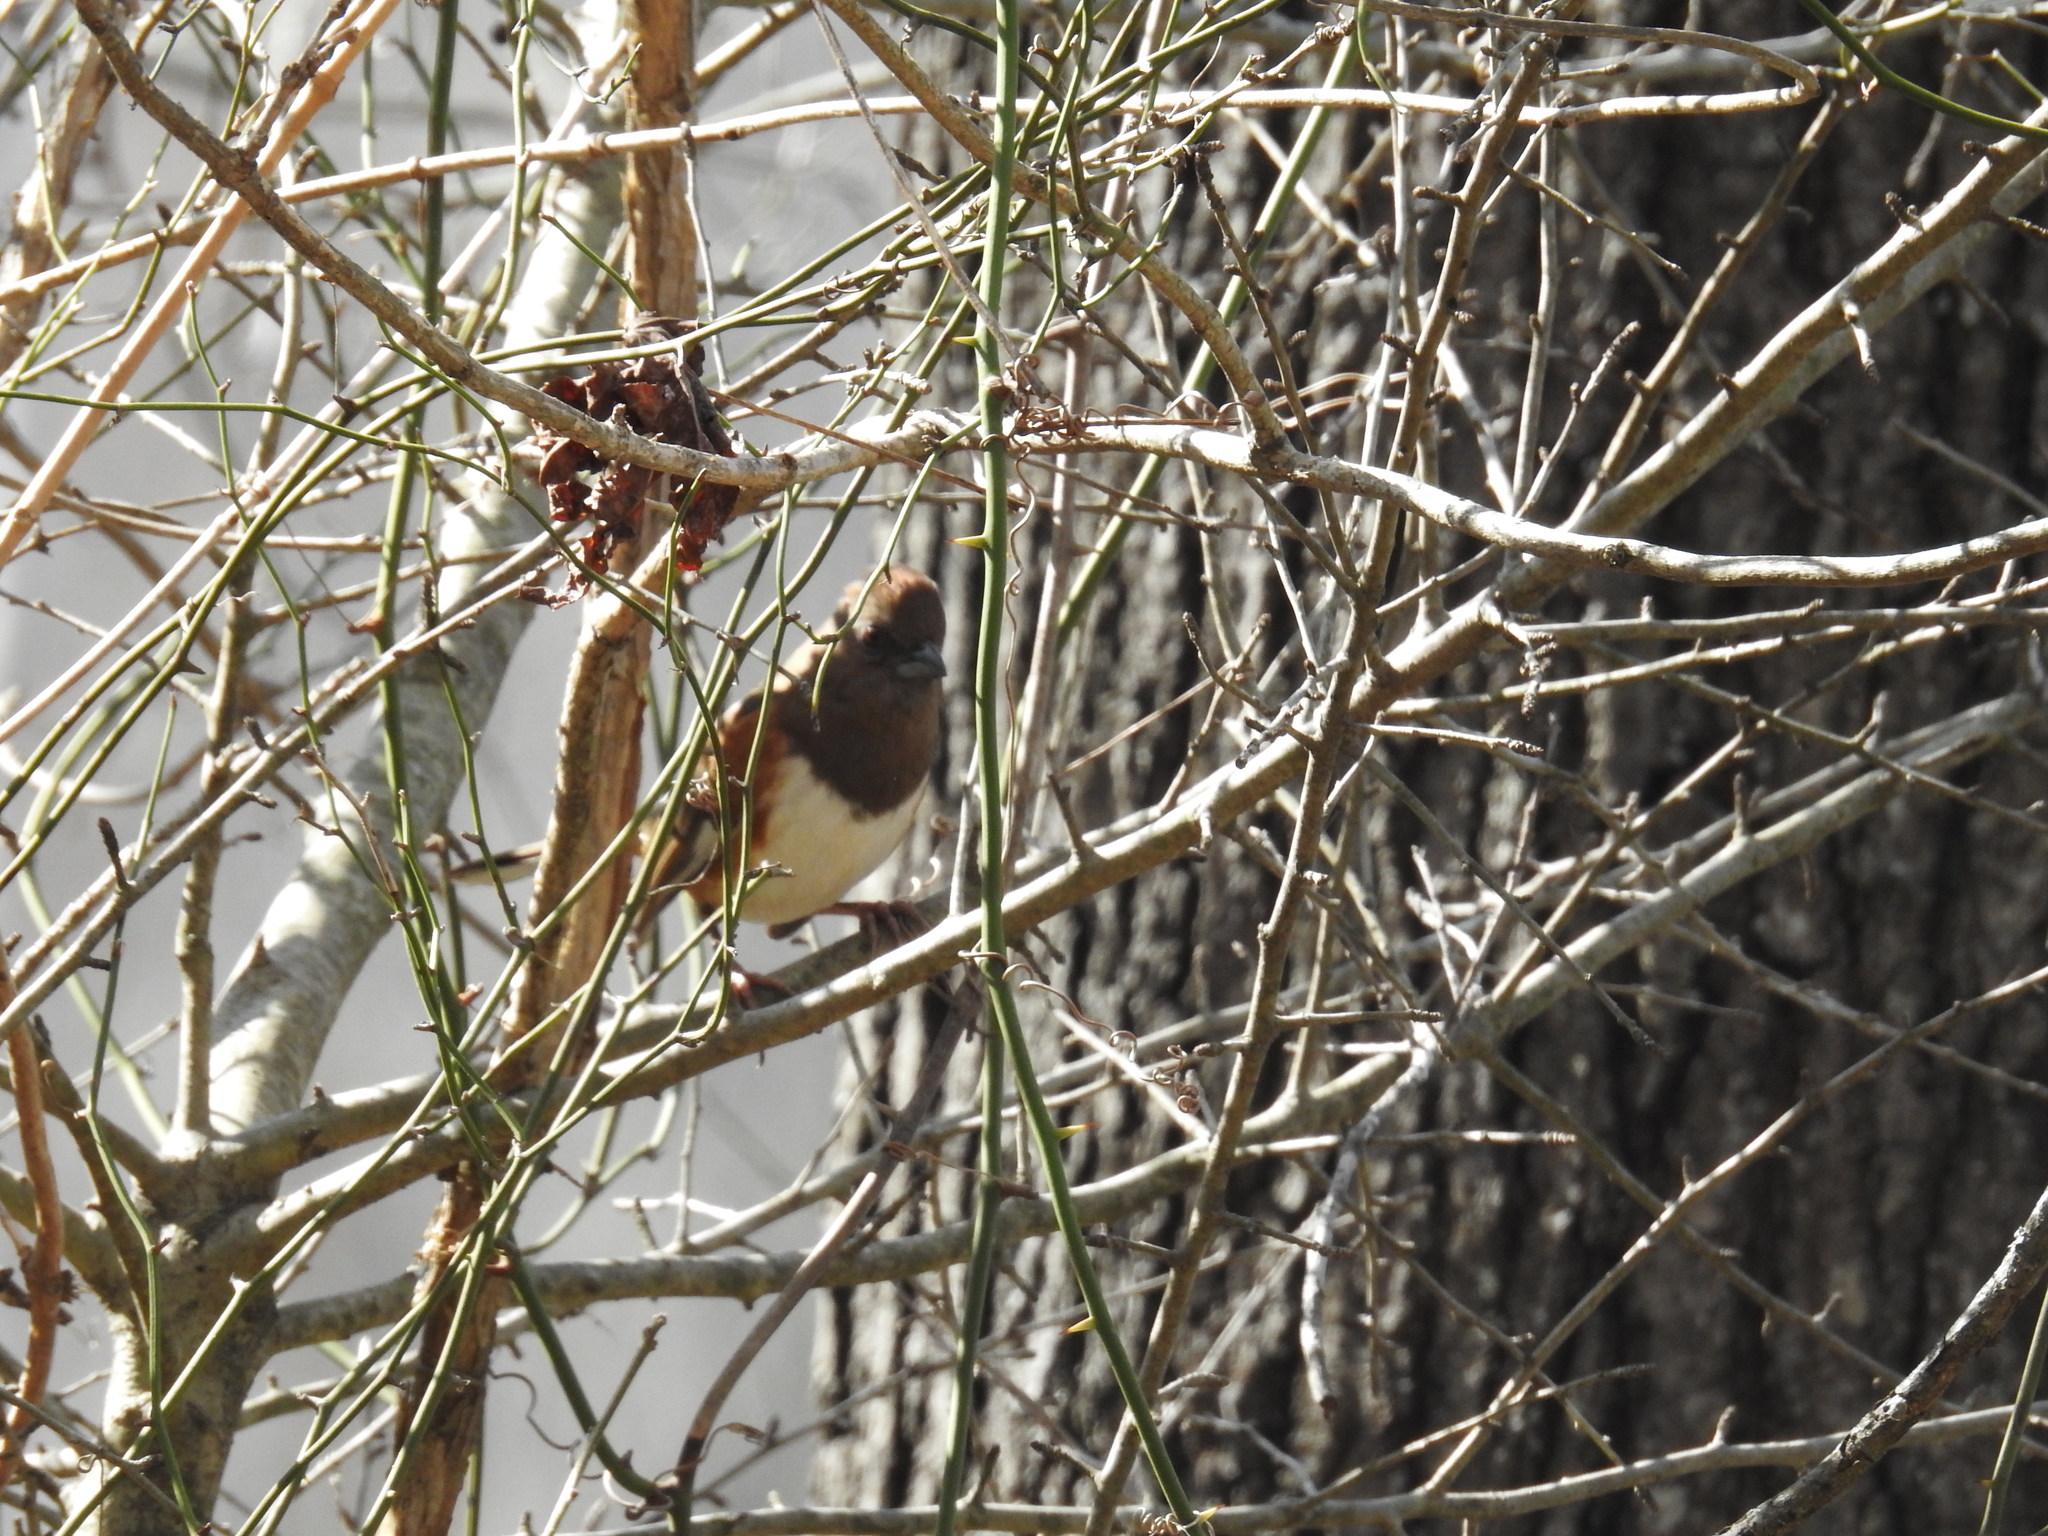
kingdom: Animalia
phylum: Chordata
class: Aves
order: Passeriformes
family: Passerellidae
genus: Pipilo
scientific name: Pipilo erythrophthalmus
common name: Eastern towhee
